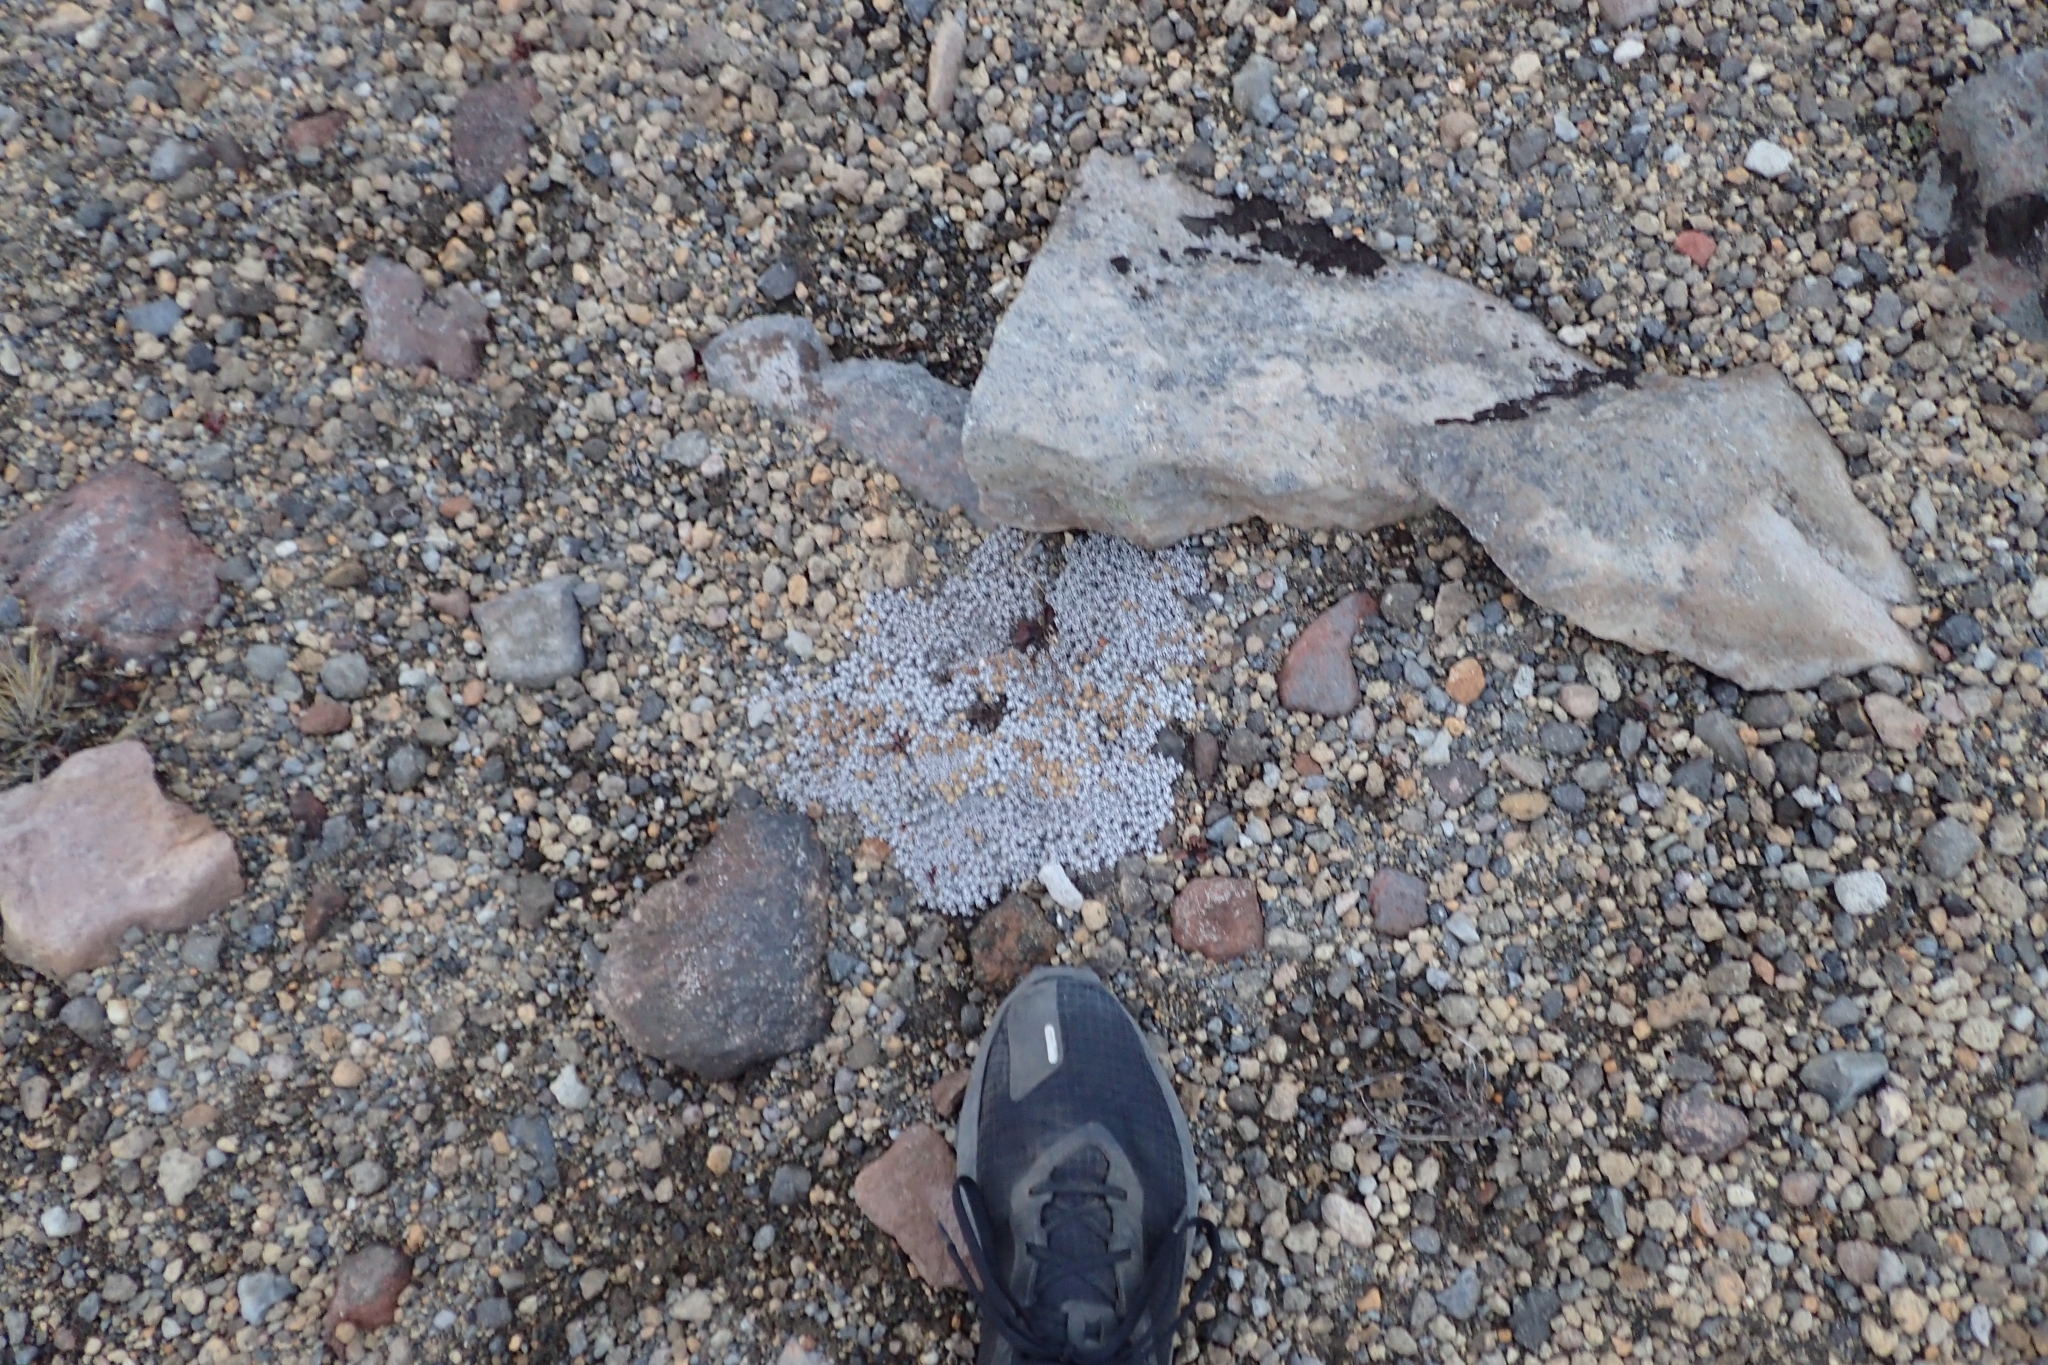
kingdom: Plantae
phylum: Tracheophyta
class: Magnoliopsida
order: Asterales
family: Asteraceae
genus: Raoulia
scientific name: Raoulia albosericea
